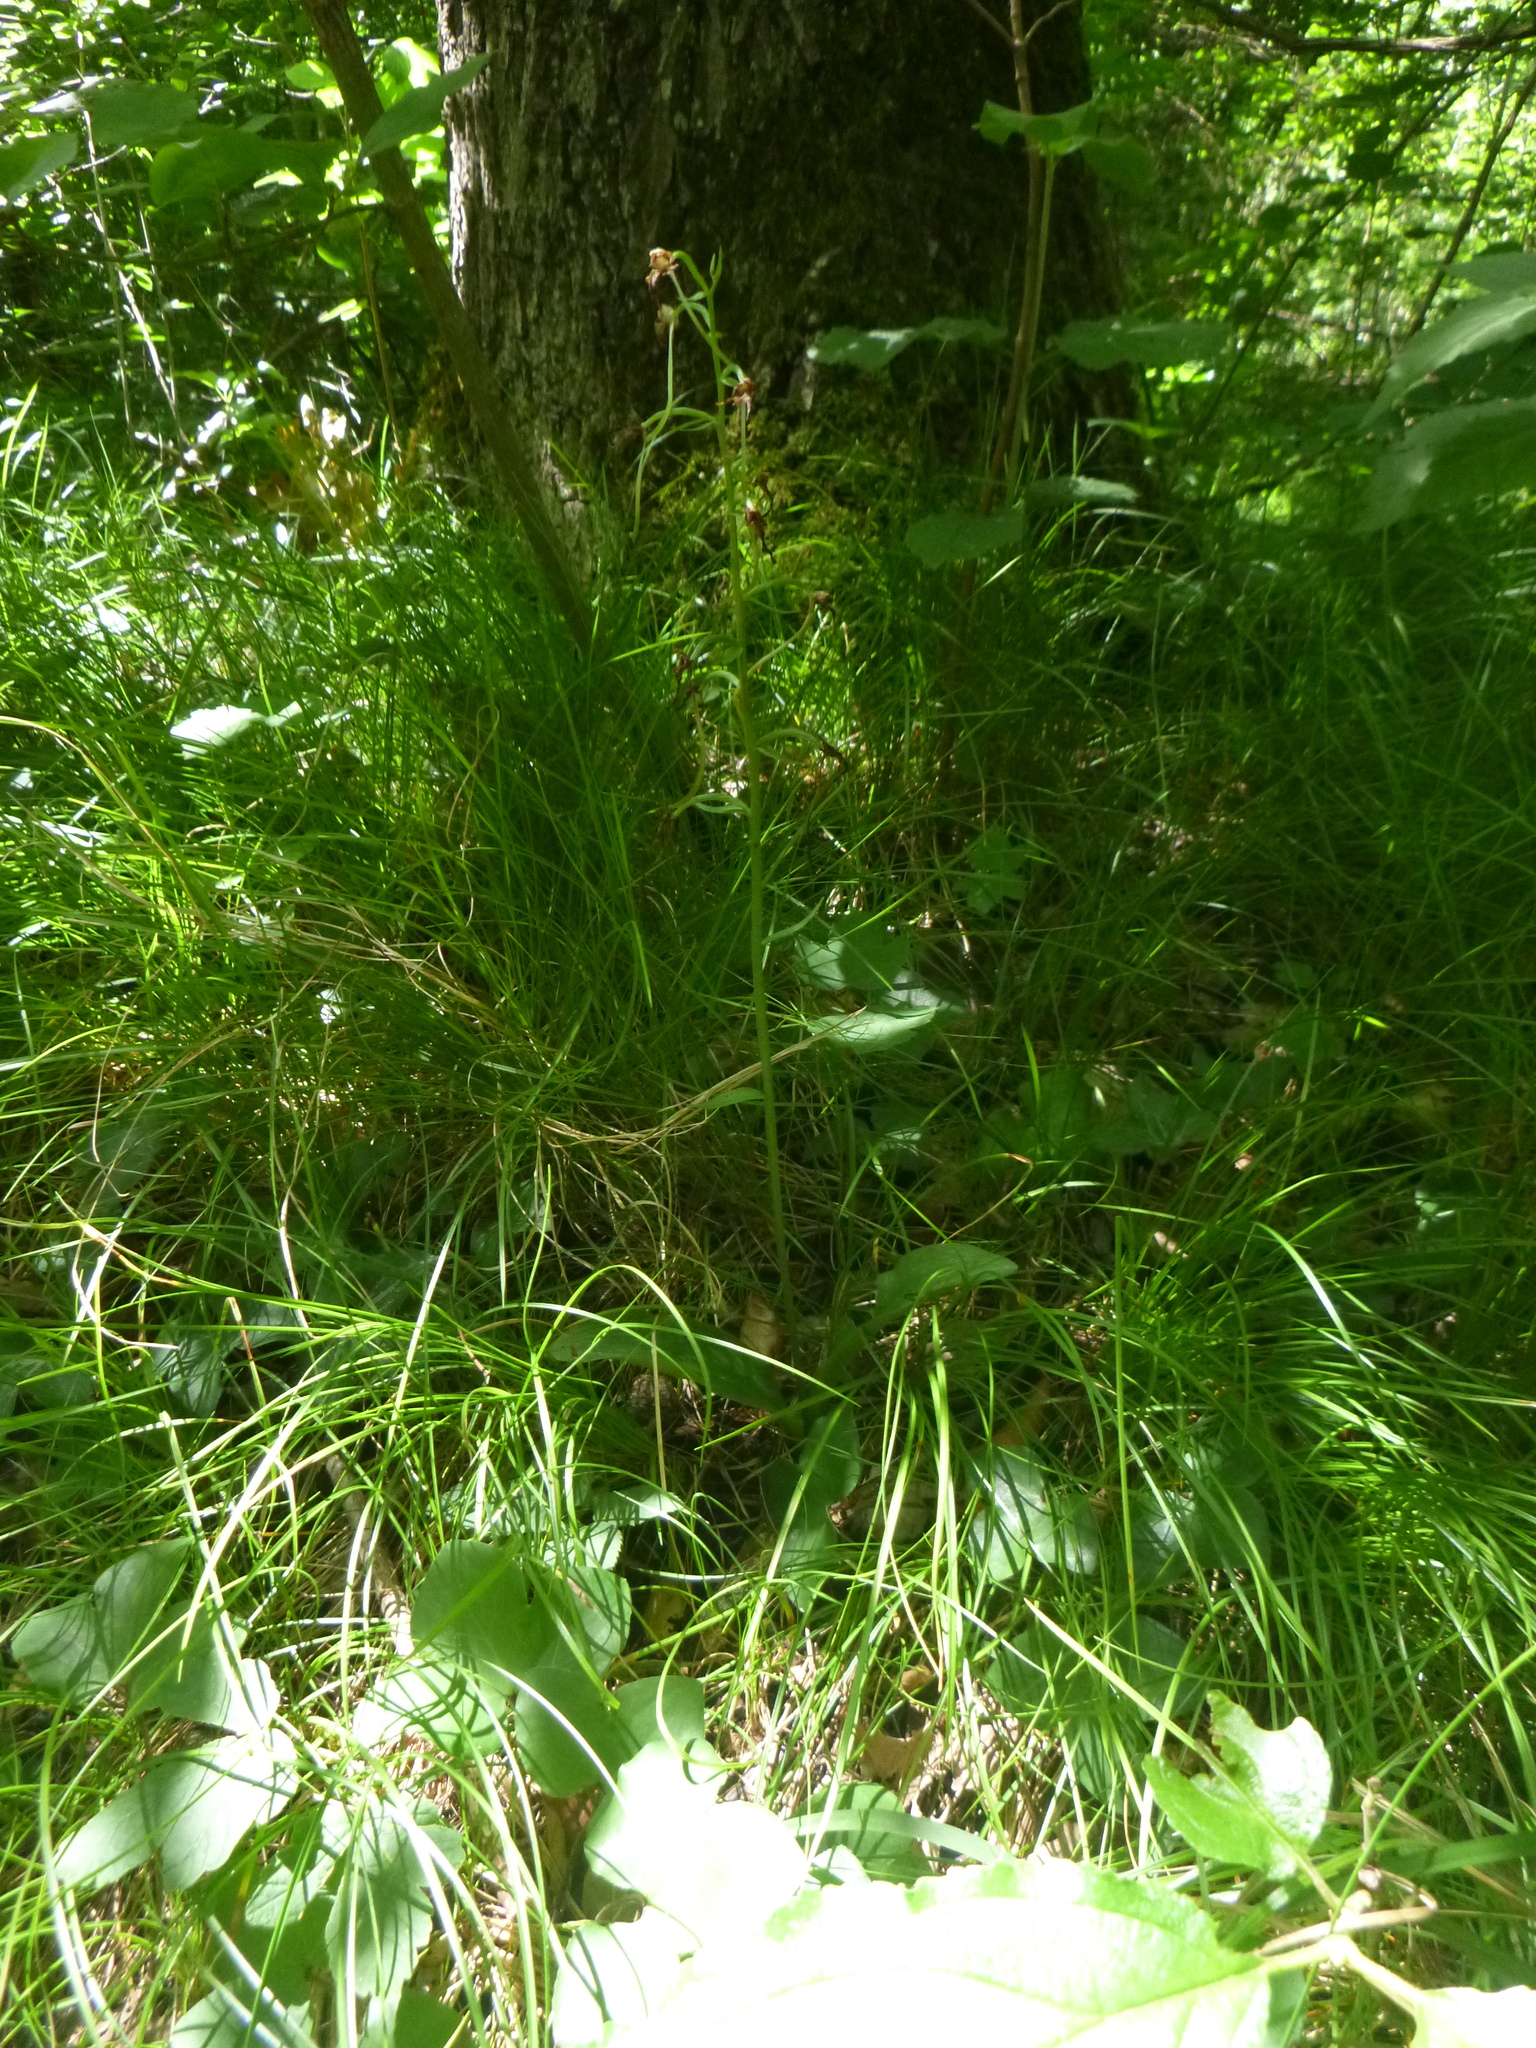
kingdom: Plantae
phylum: Tracheophyta
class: Liliopsida
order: Asparagales
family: Orchidaceae
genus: Platanthera
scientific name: Platanthera chlorantha
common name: Greater butterfly-orchid
